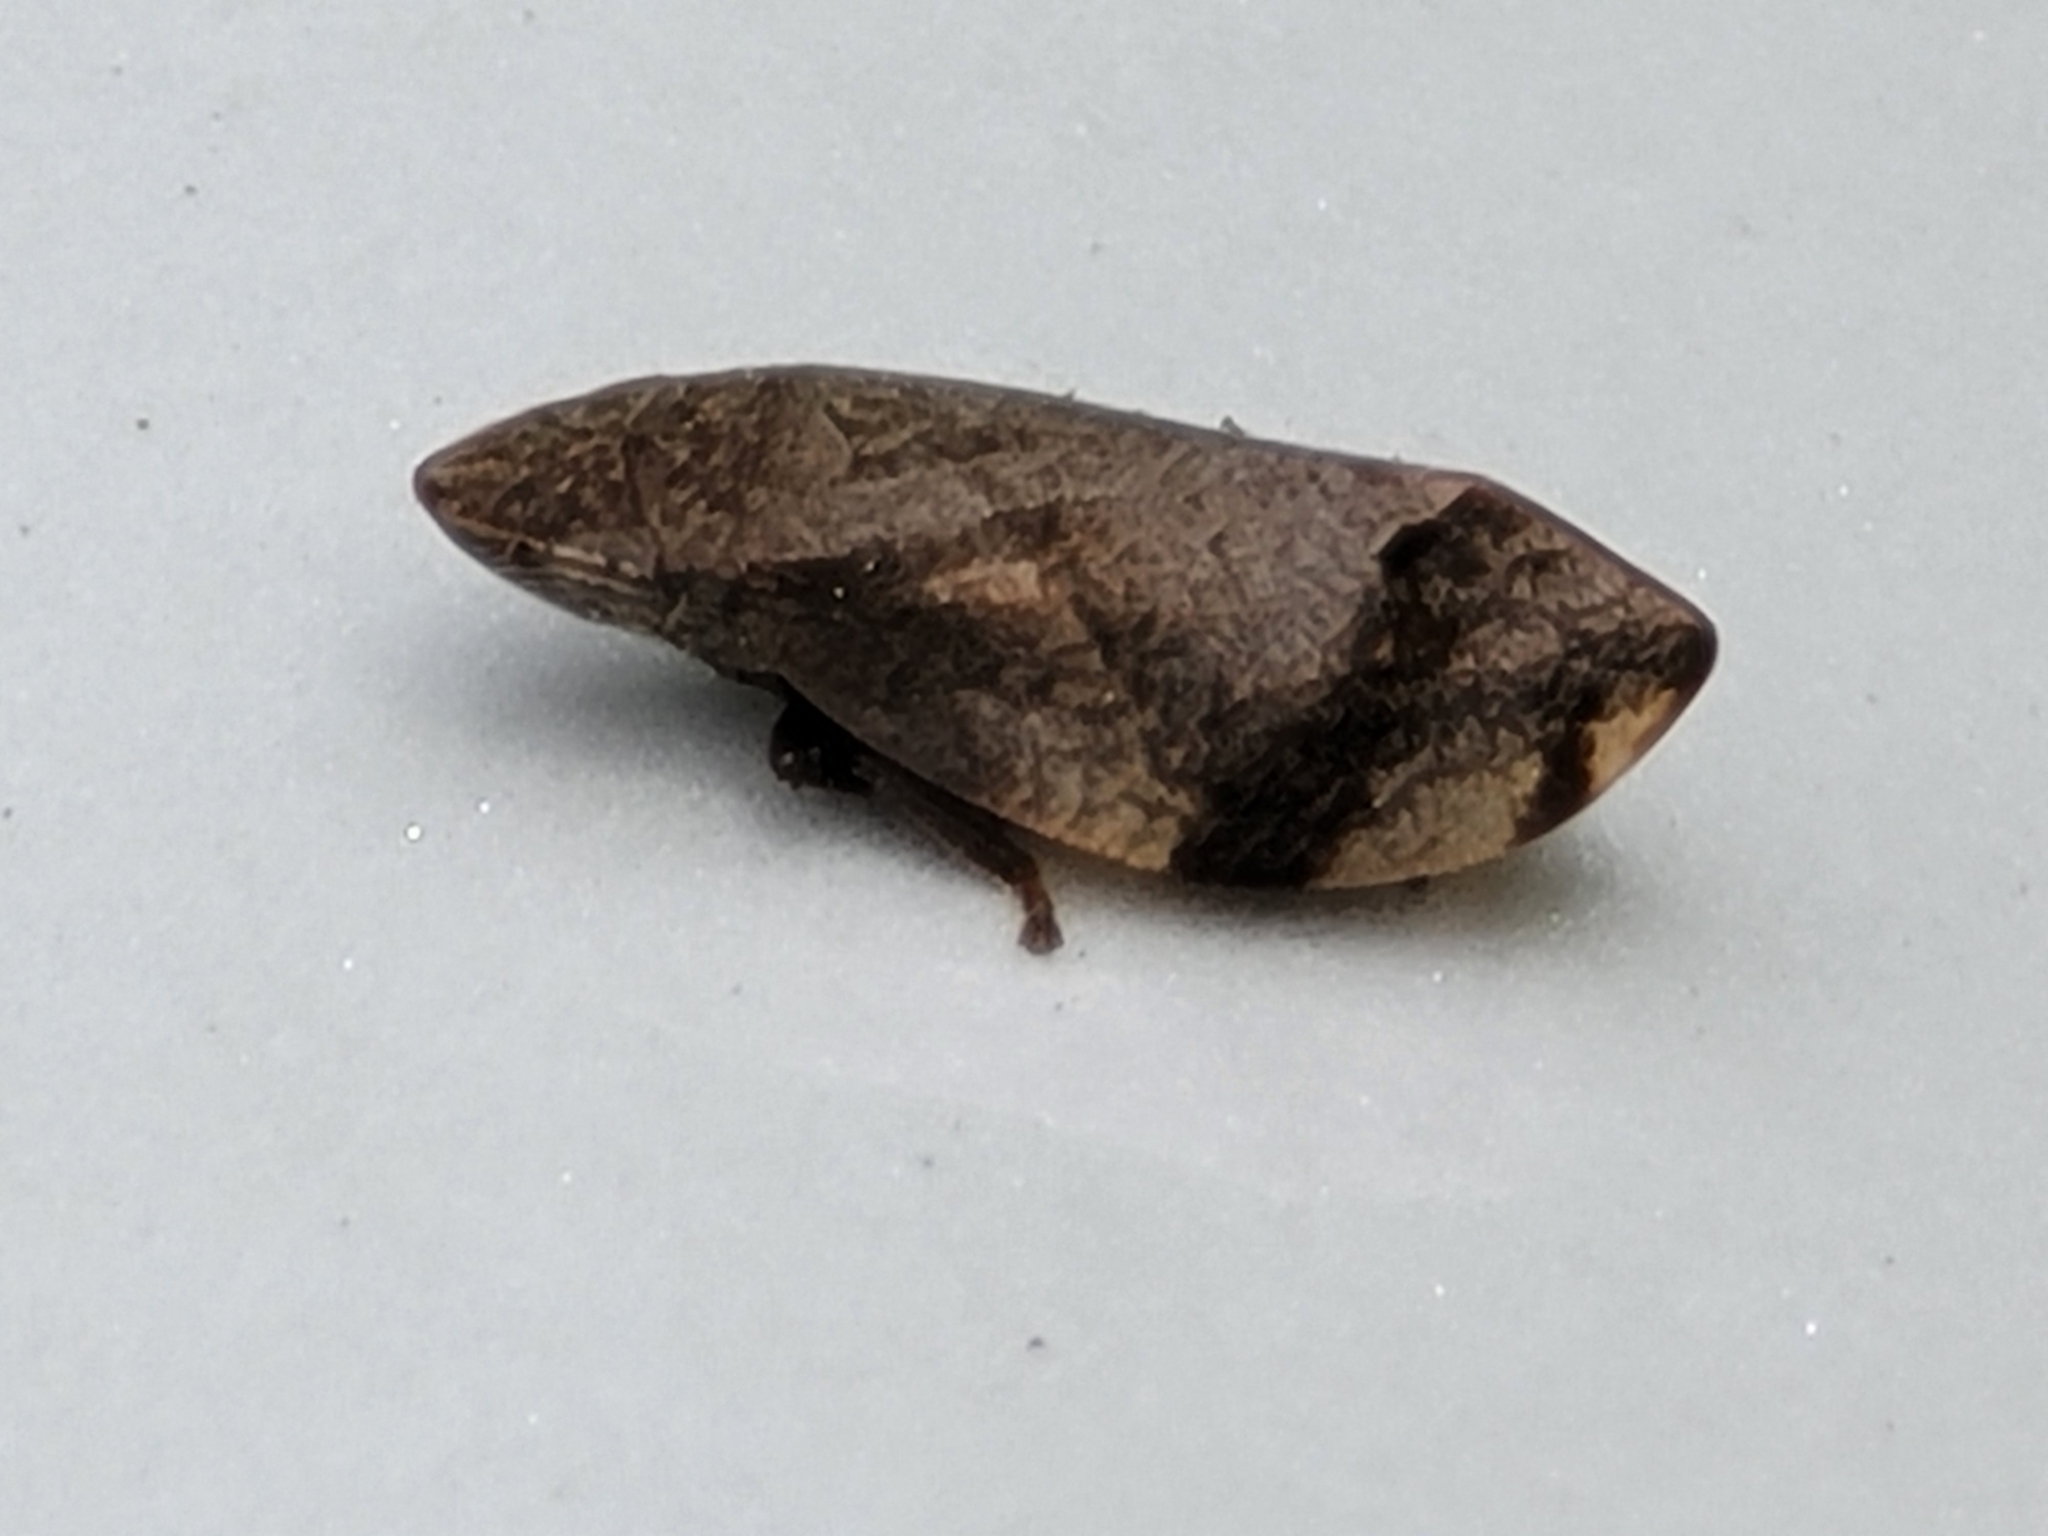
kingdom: Animalia
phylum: Arthropoda
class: Insecta
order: Hemiptera
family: Aphrophoridae
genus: Lepyronia
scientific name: Lepyronia quadrangularis
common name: Diamond-backed spittlebug
